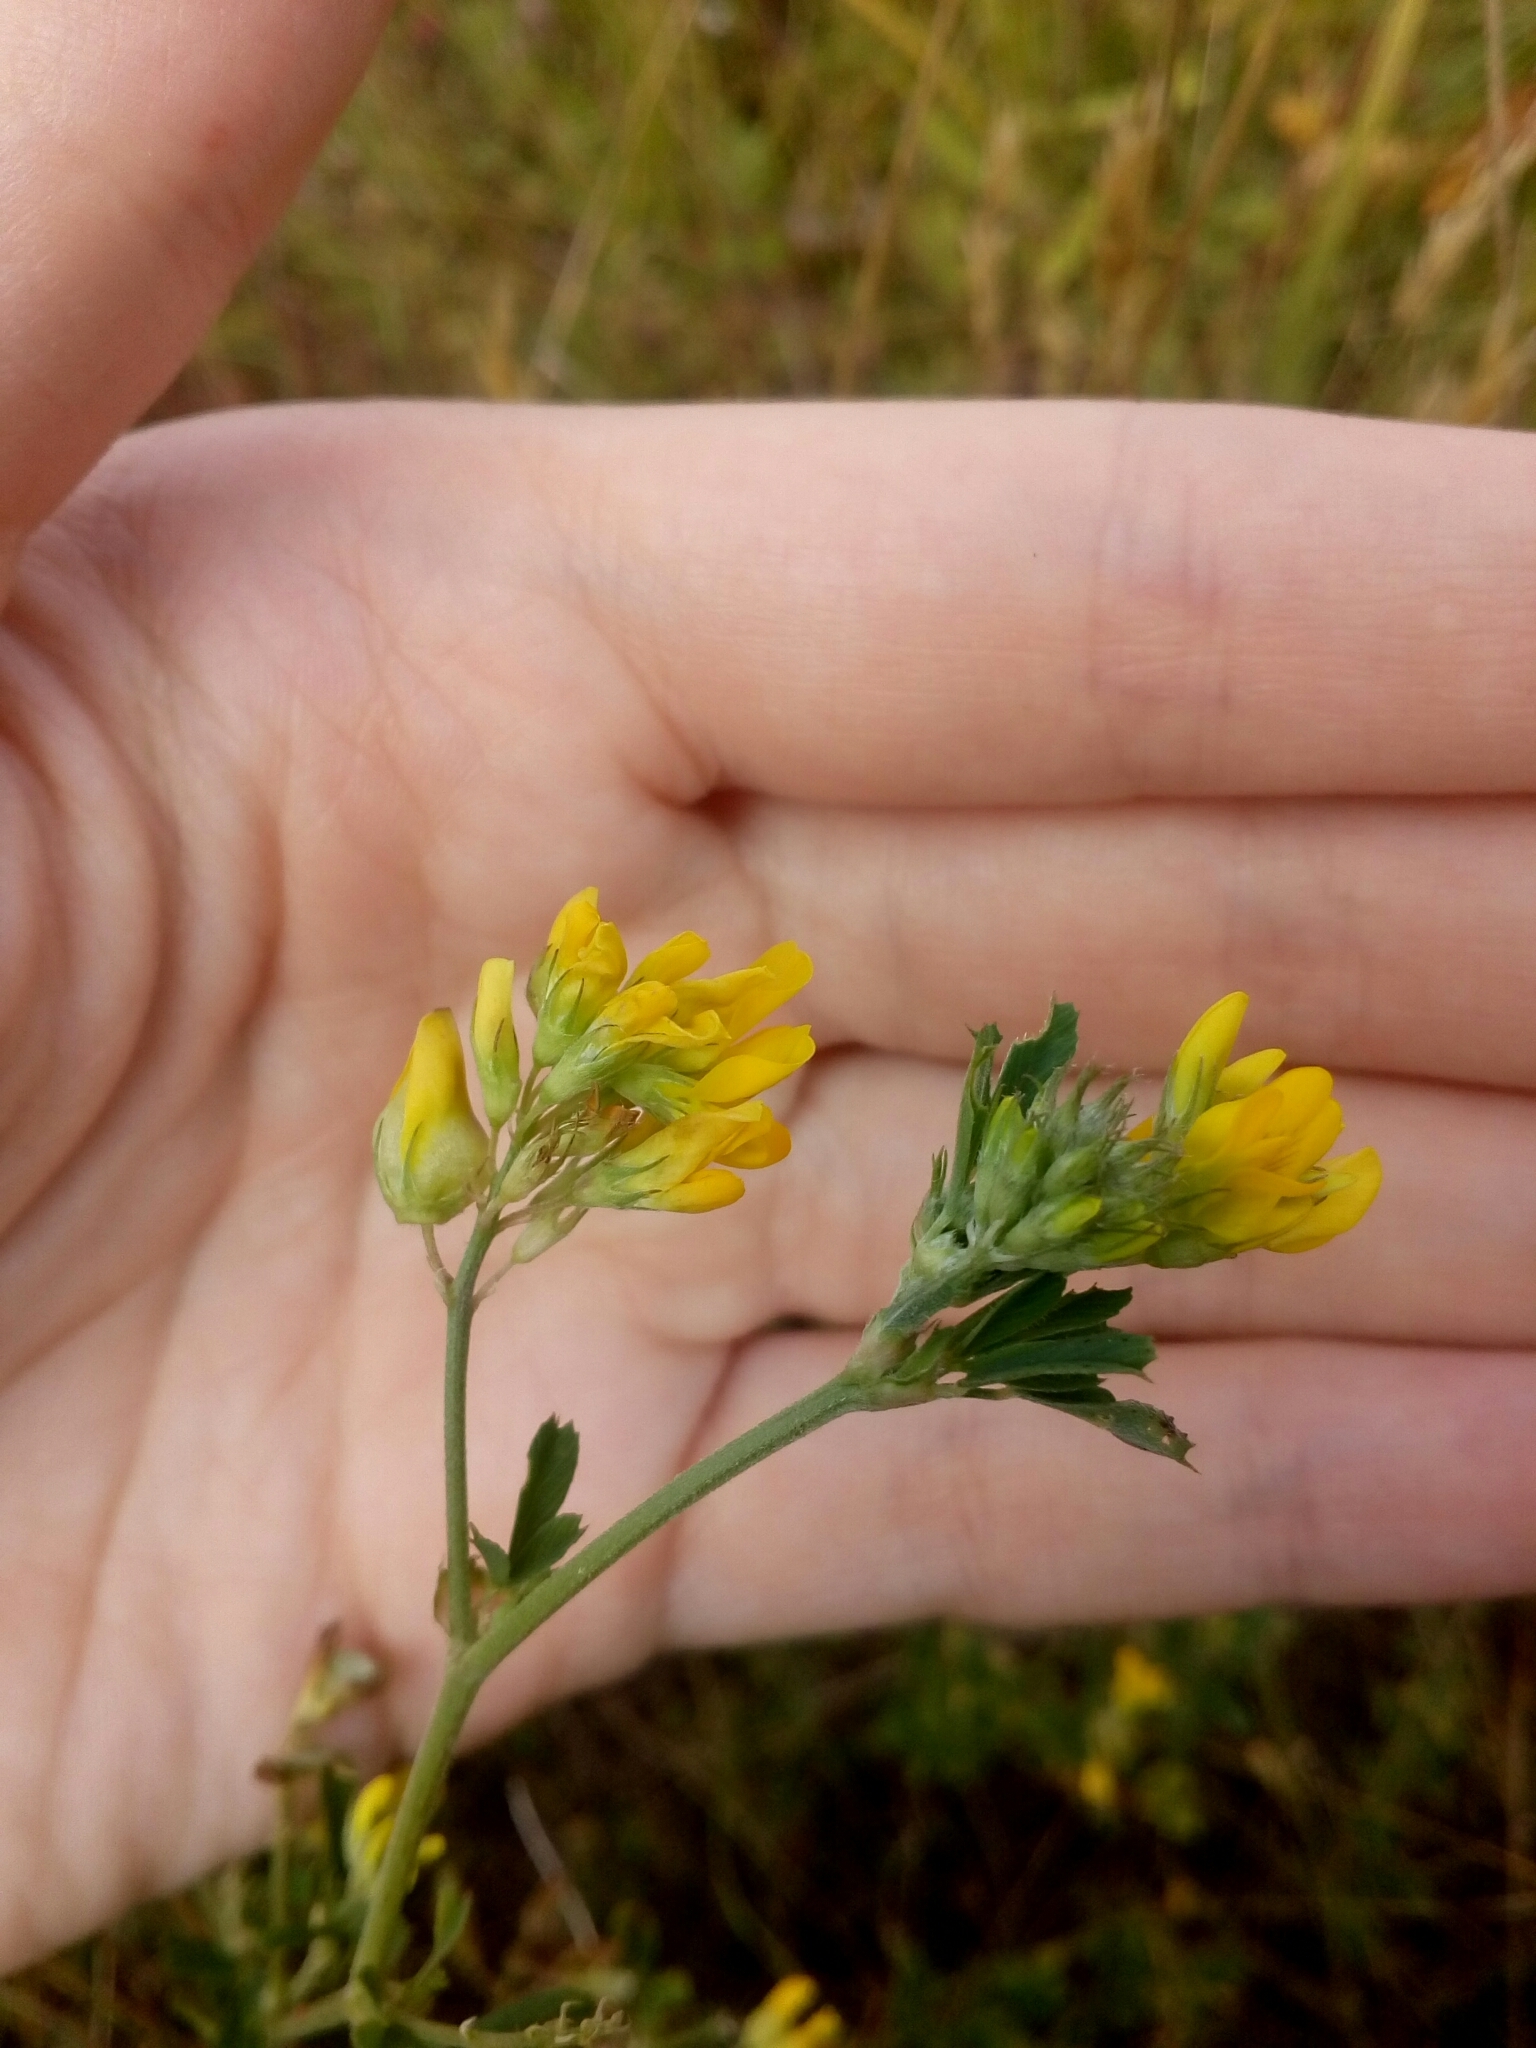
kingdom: Plantae
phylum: Tracheophyta
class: Magnoliopsida
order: Fabales
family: Fabaceae
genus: Medicago
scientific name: Medicago falcata
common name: Sickle medick
